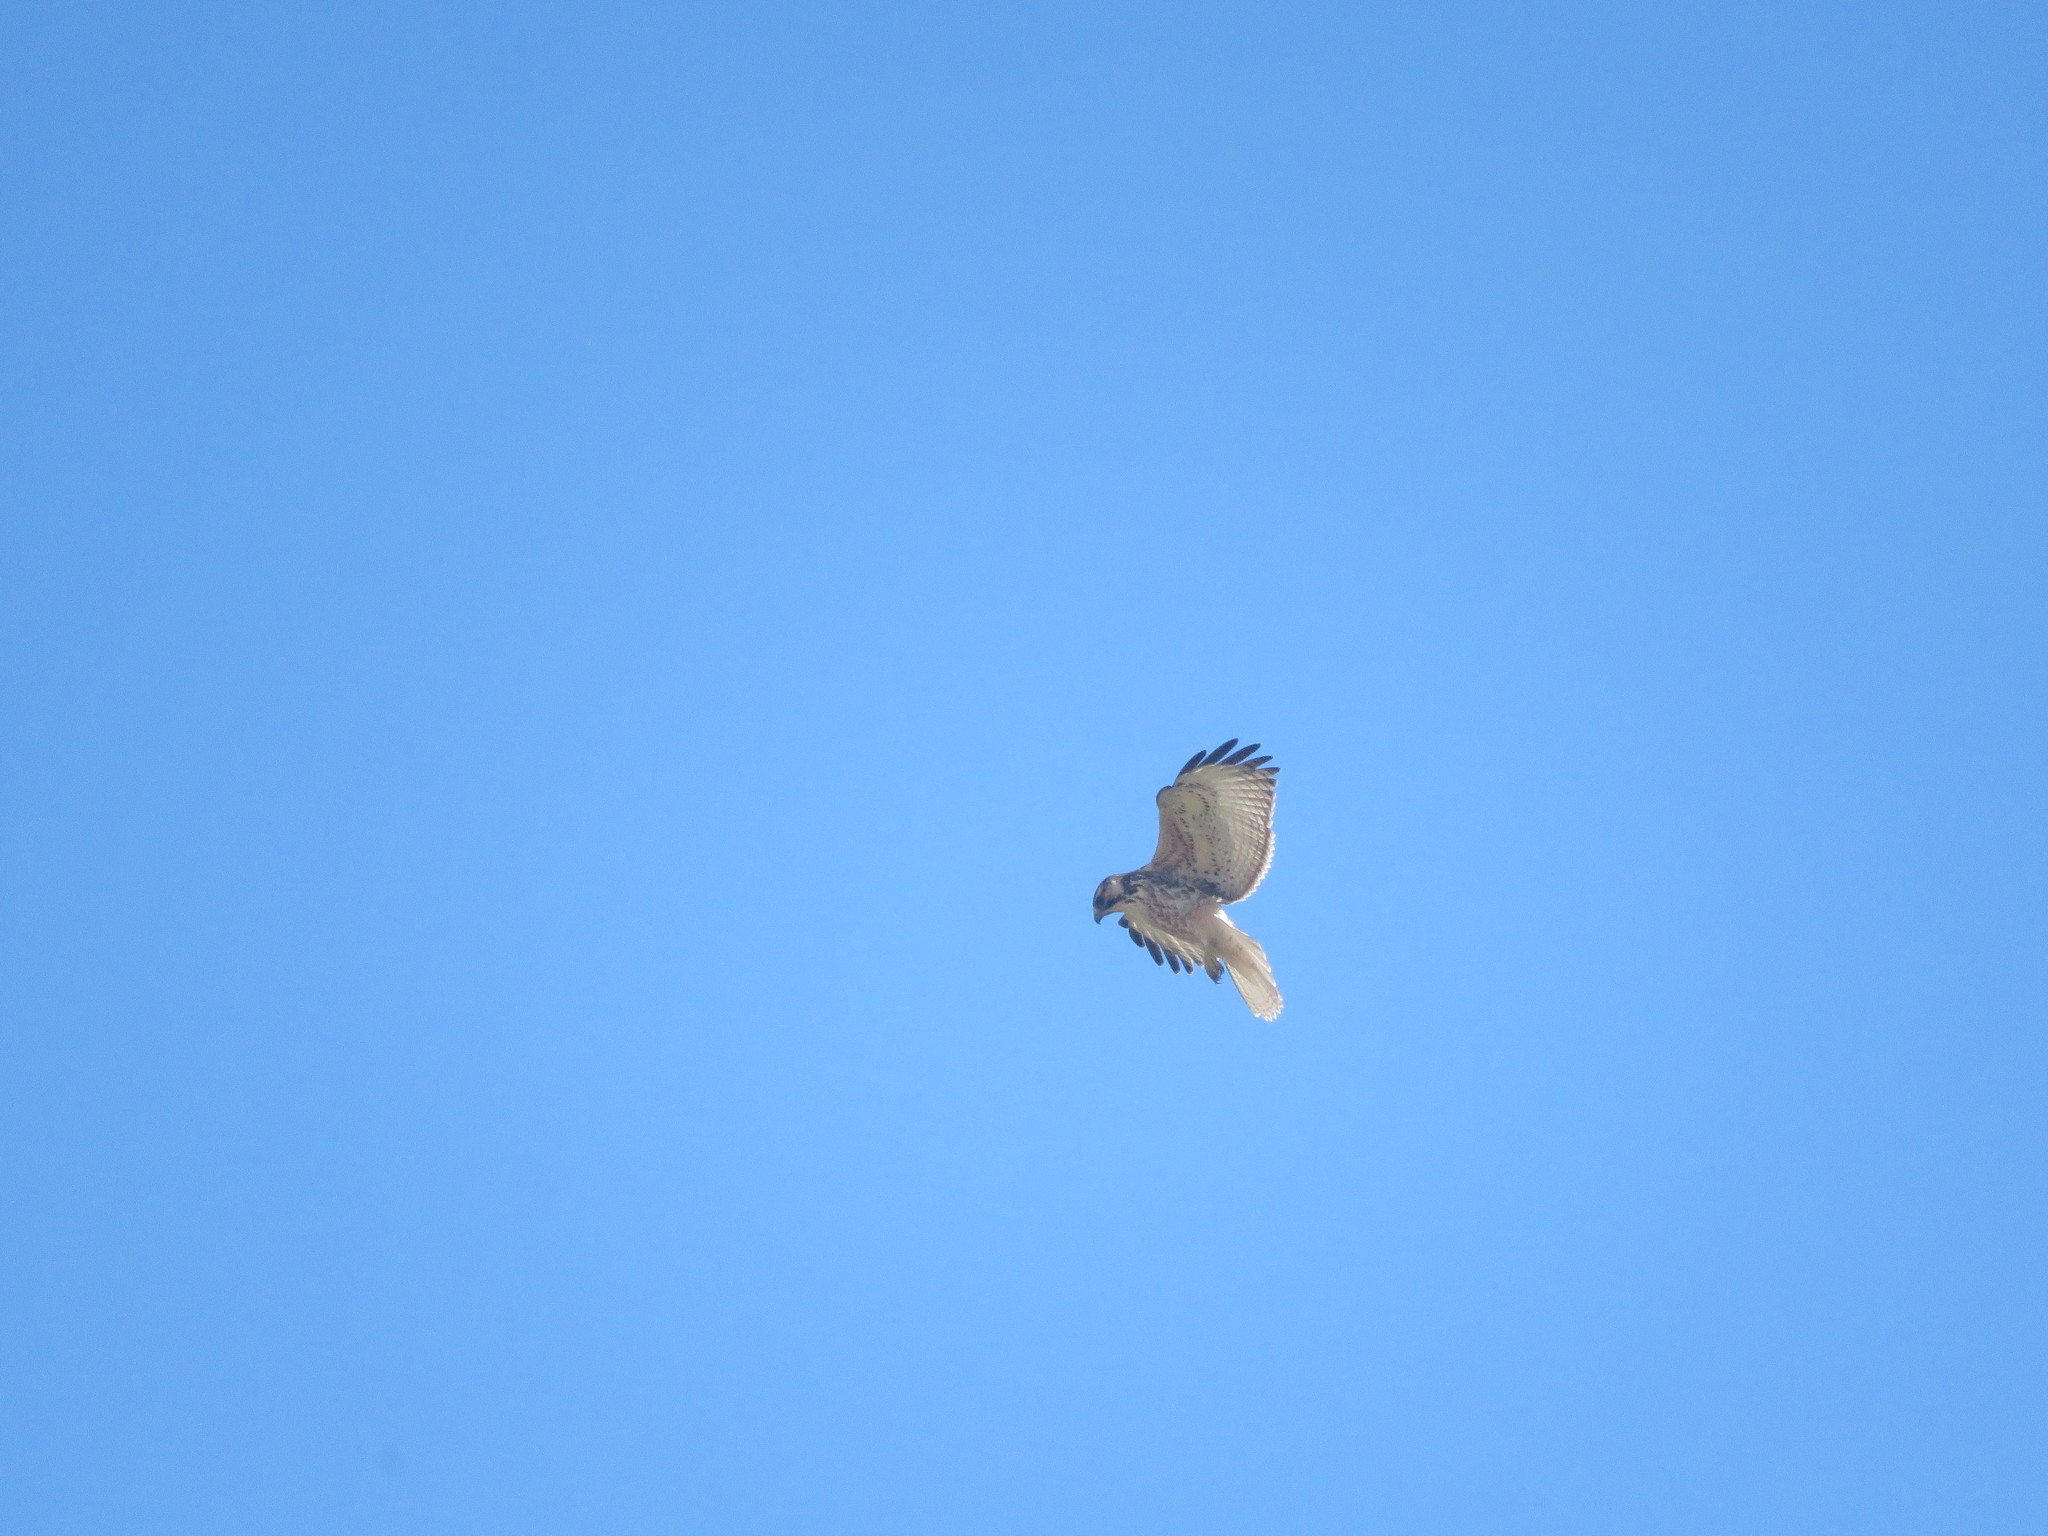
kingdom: Animalia
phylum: Chordata
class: Aves
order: Accipitriformes
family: Accipitridae
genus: Buteo
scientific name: Buteo polyosoma
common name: Variable hawk
